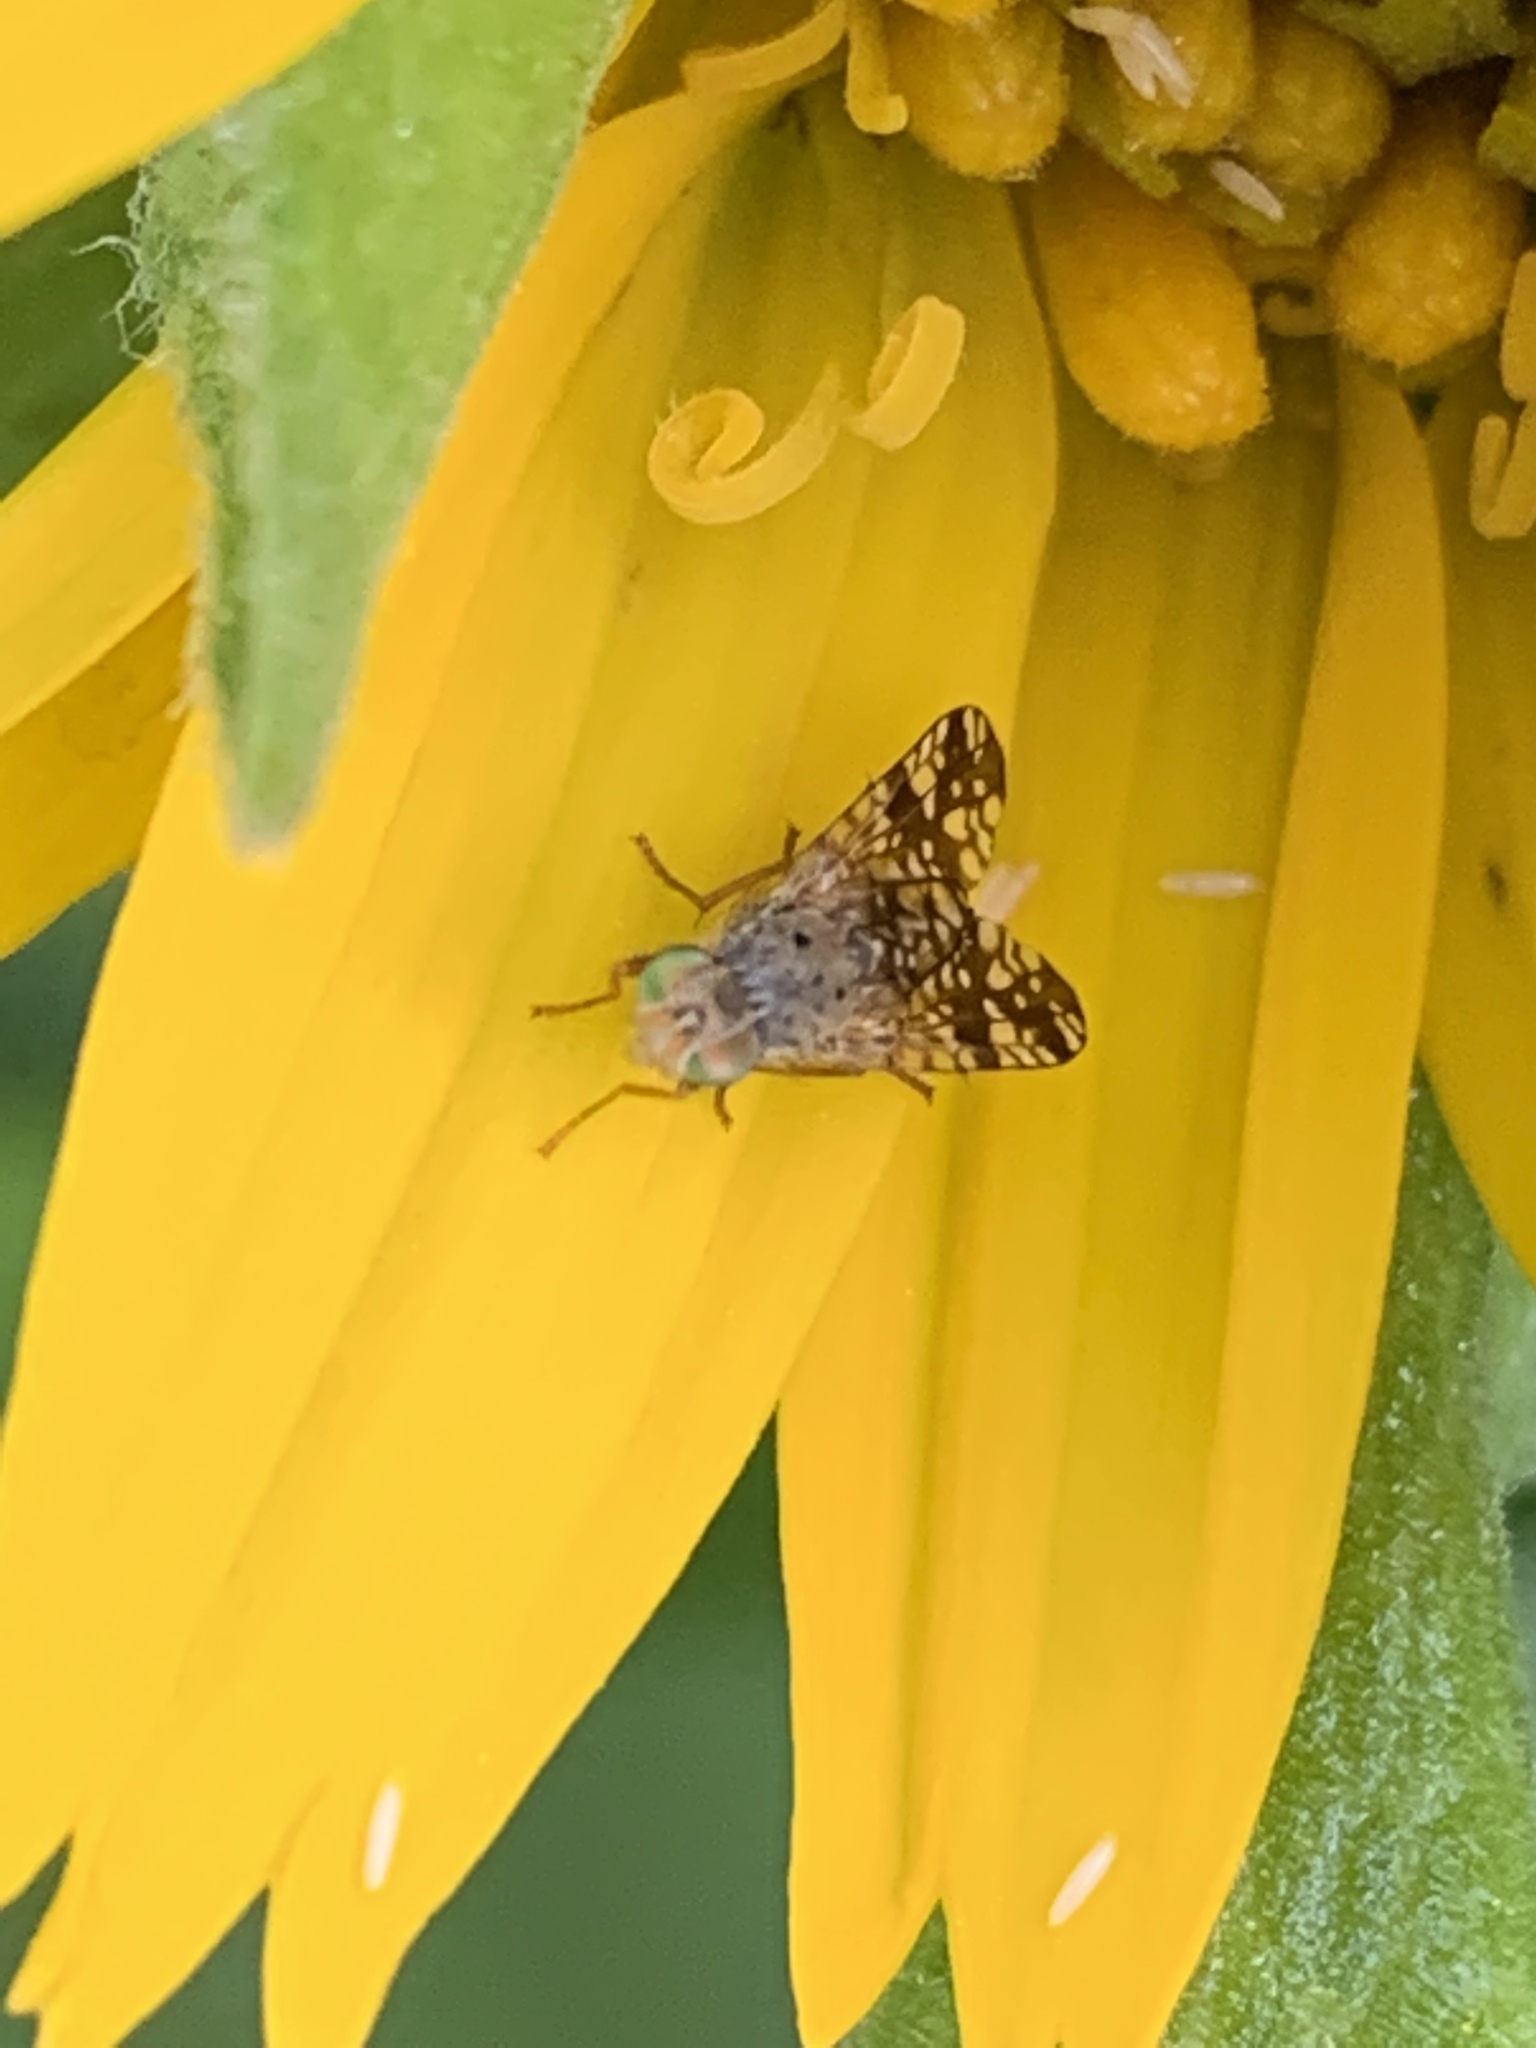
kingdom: Animalia
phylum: Arthropoda
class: Insecta
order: Diptera
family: Tephritidae
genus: Neotephritis
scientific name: Neotephritis finalis
